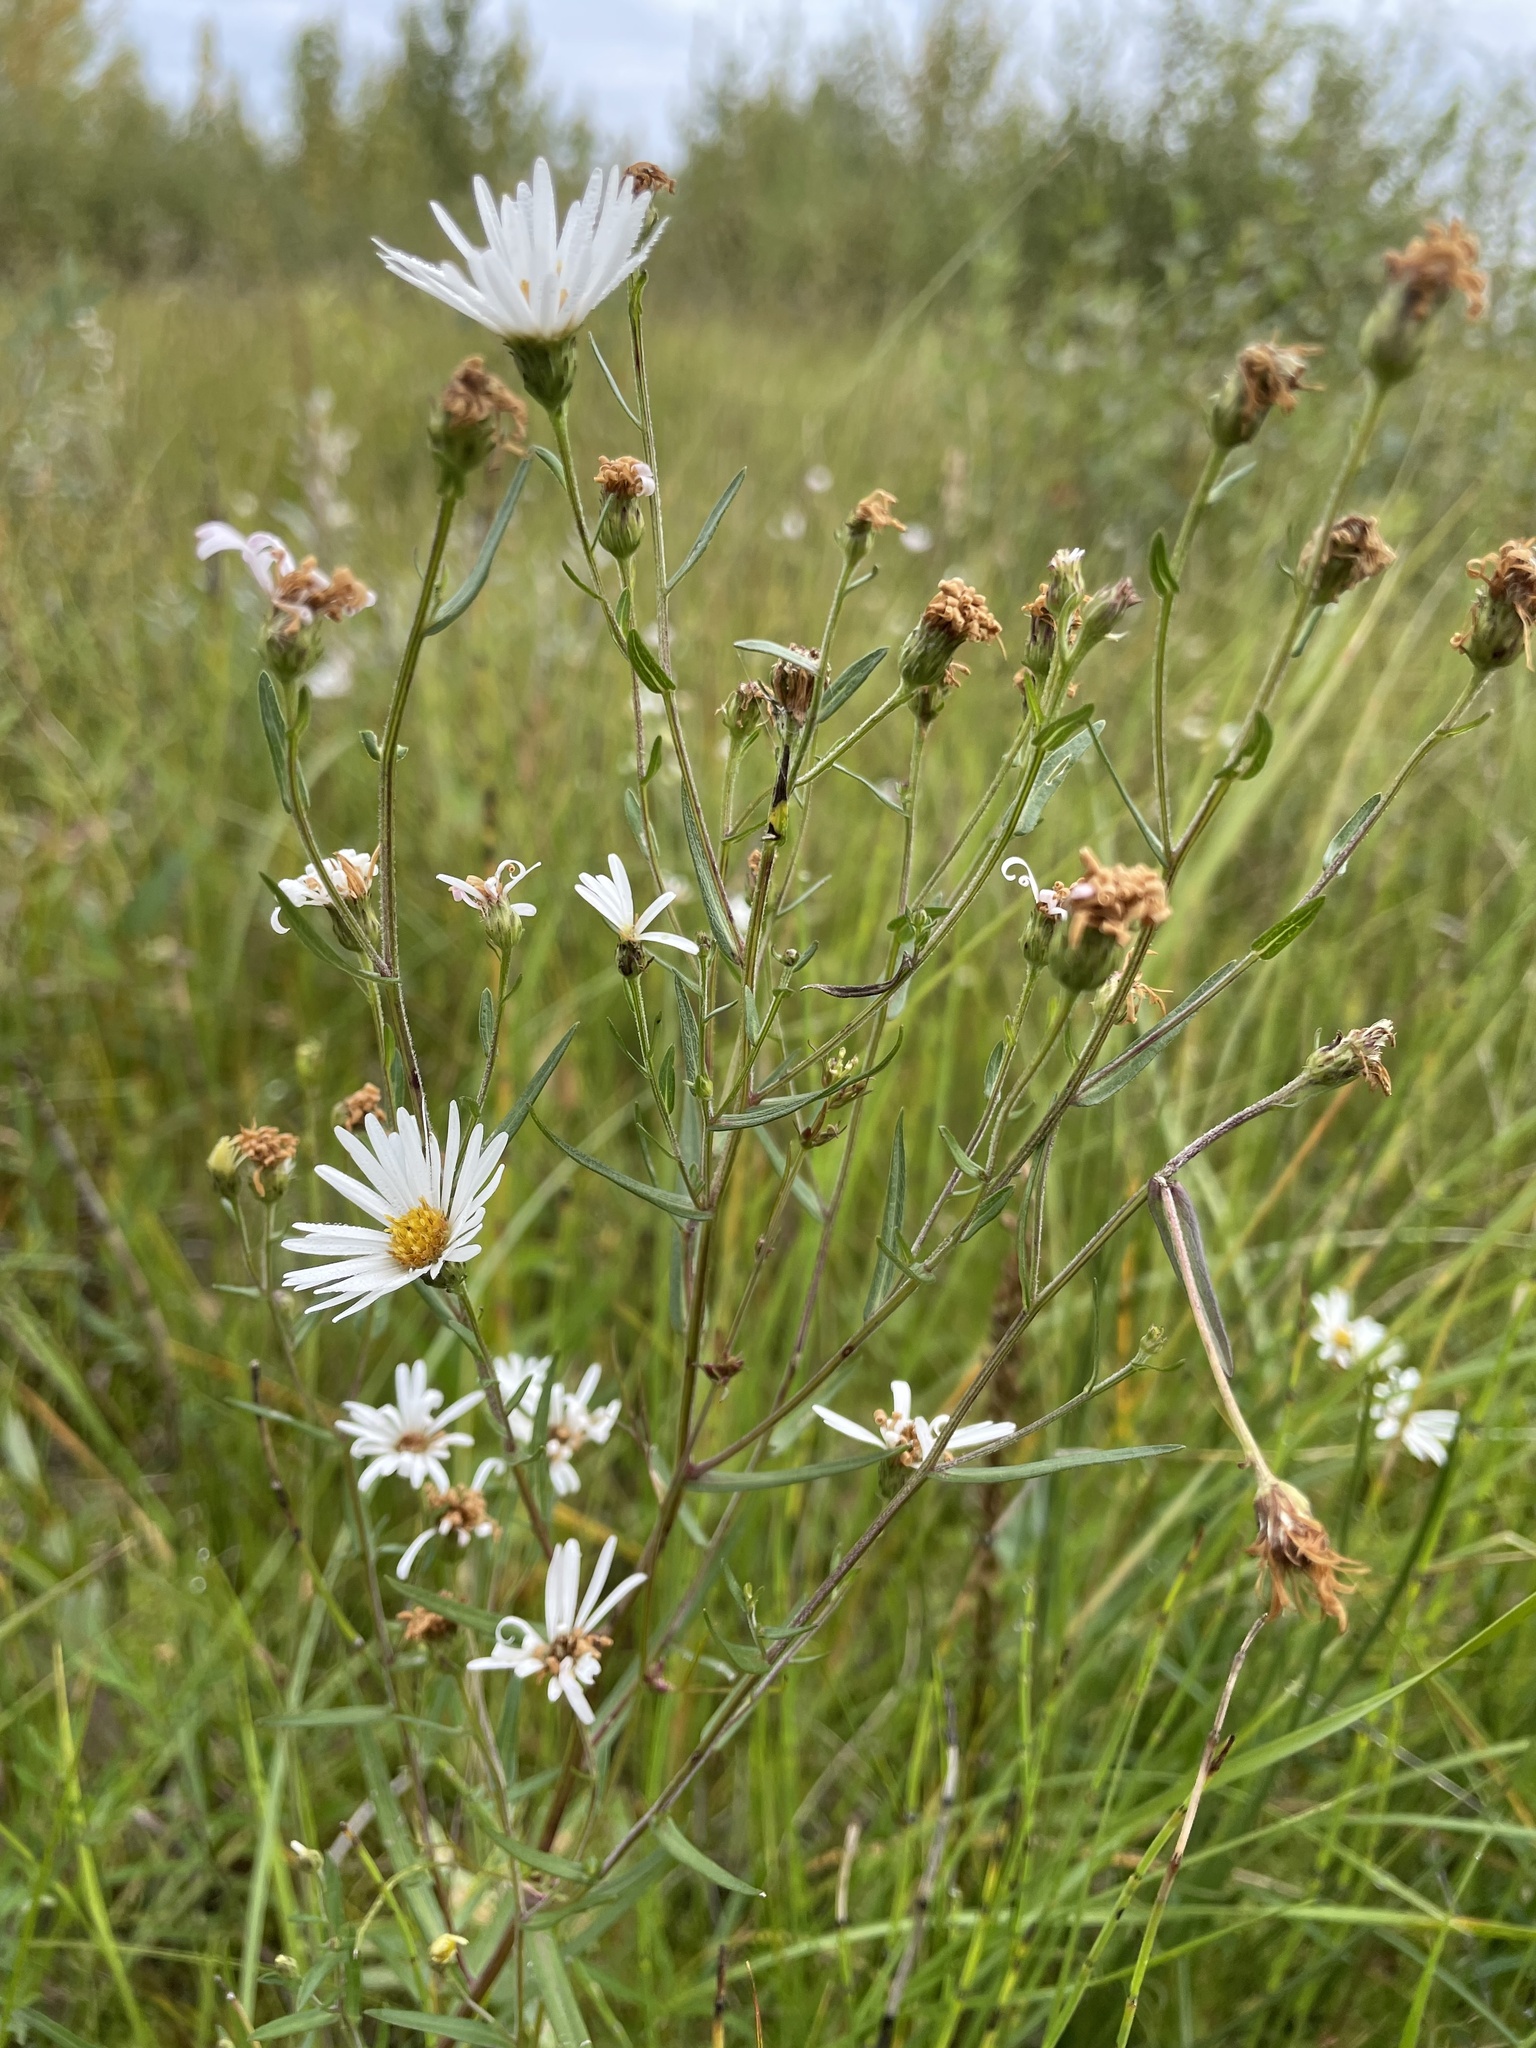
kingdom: Plantae
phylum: Tracheophyta
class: Magnoliopsida
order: Asterales
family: Asteraceae
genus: Symphyotrichum
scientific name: Symphyotrichum boreale
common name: Northern bog aster
